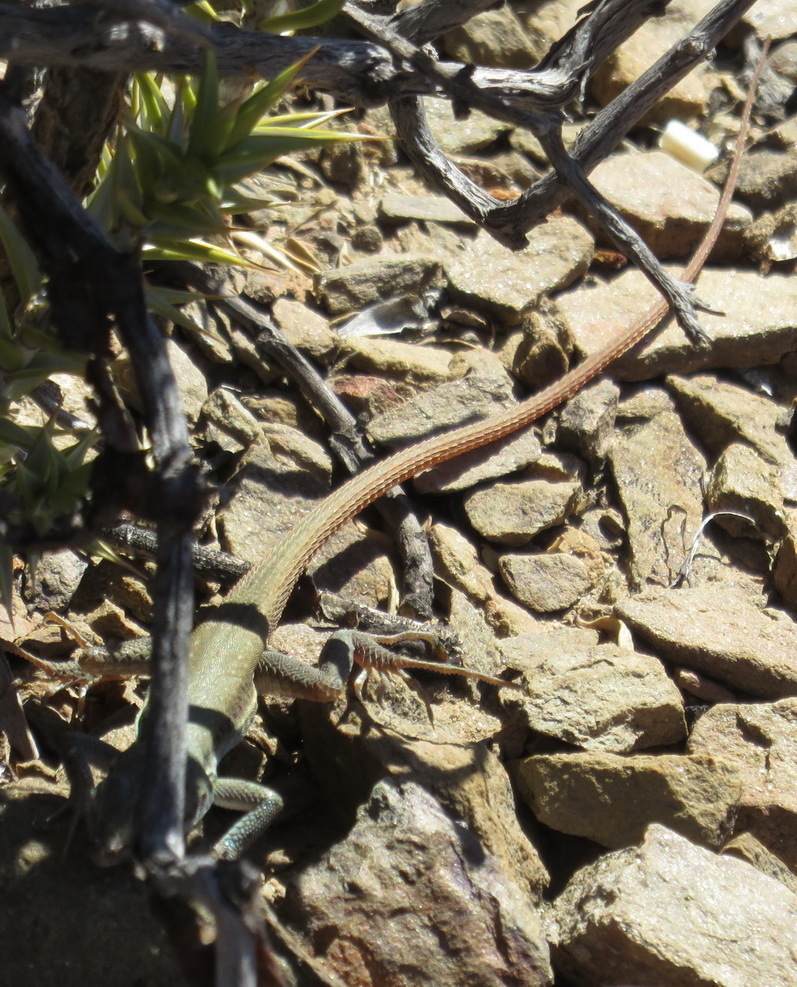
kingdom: Animalia
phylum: Chordata
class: Squamata
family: Lacertidae
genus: Pedioplanis
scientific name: Pedioplanis lineoocellata
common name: Spotted sand lizard
